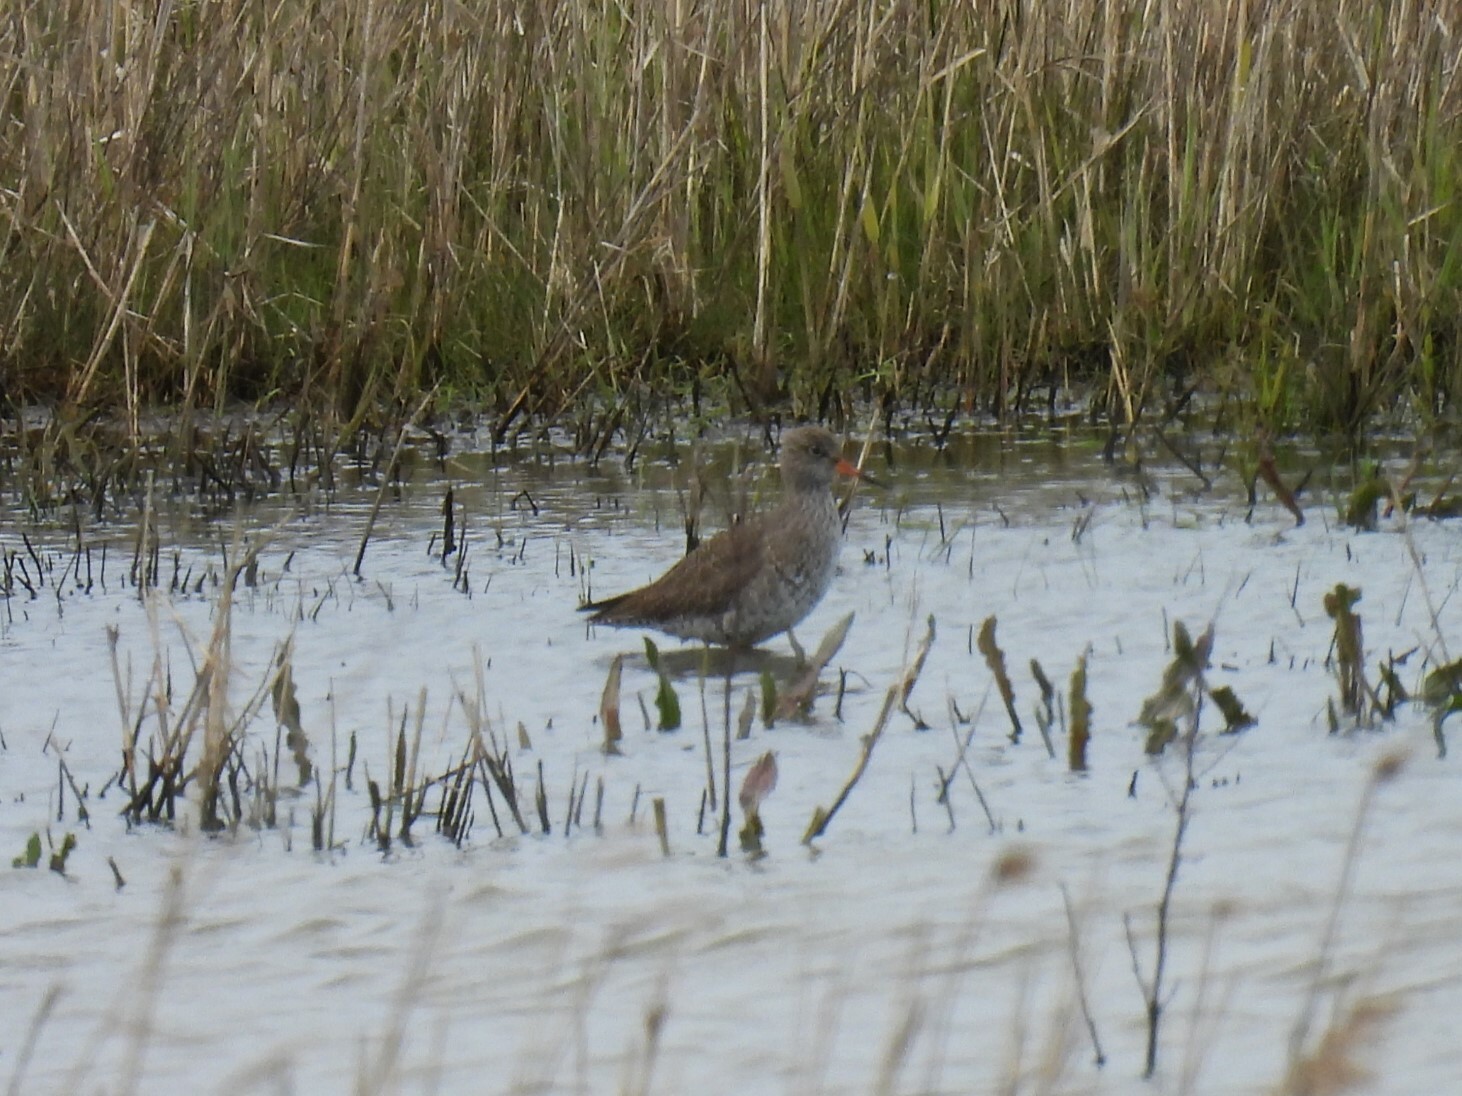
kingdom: Animalia
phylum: Chordata
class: Aves
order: Charadriiformes
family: Scolopacidae
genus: Tringa
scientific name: Tringa totanus
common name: Common redshank
